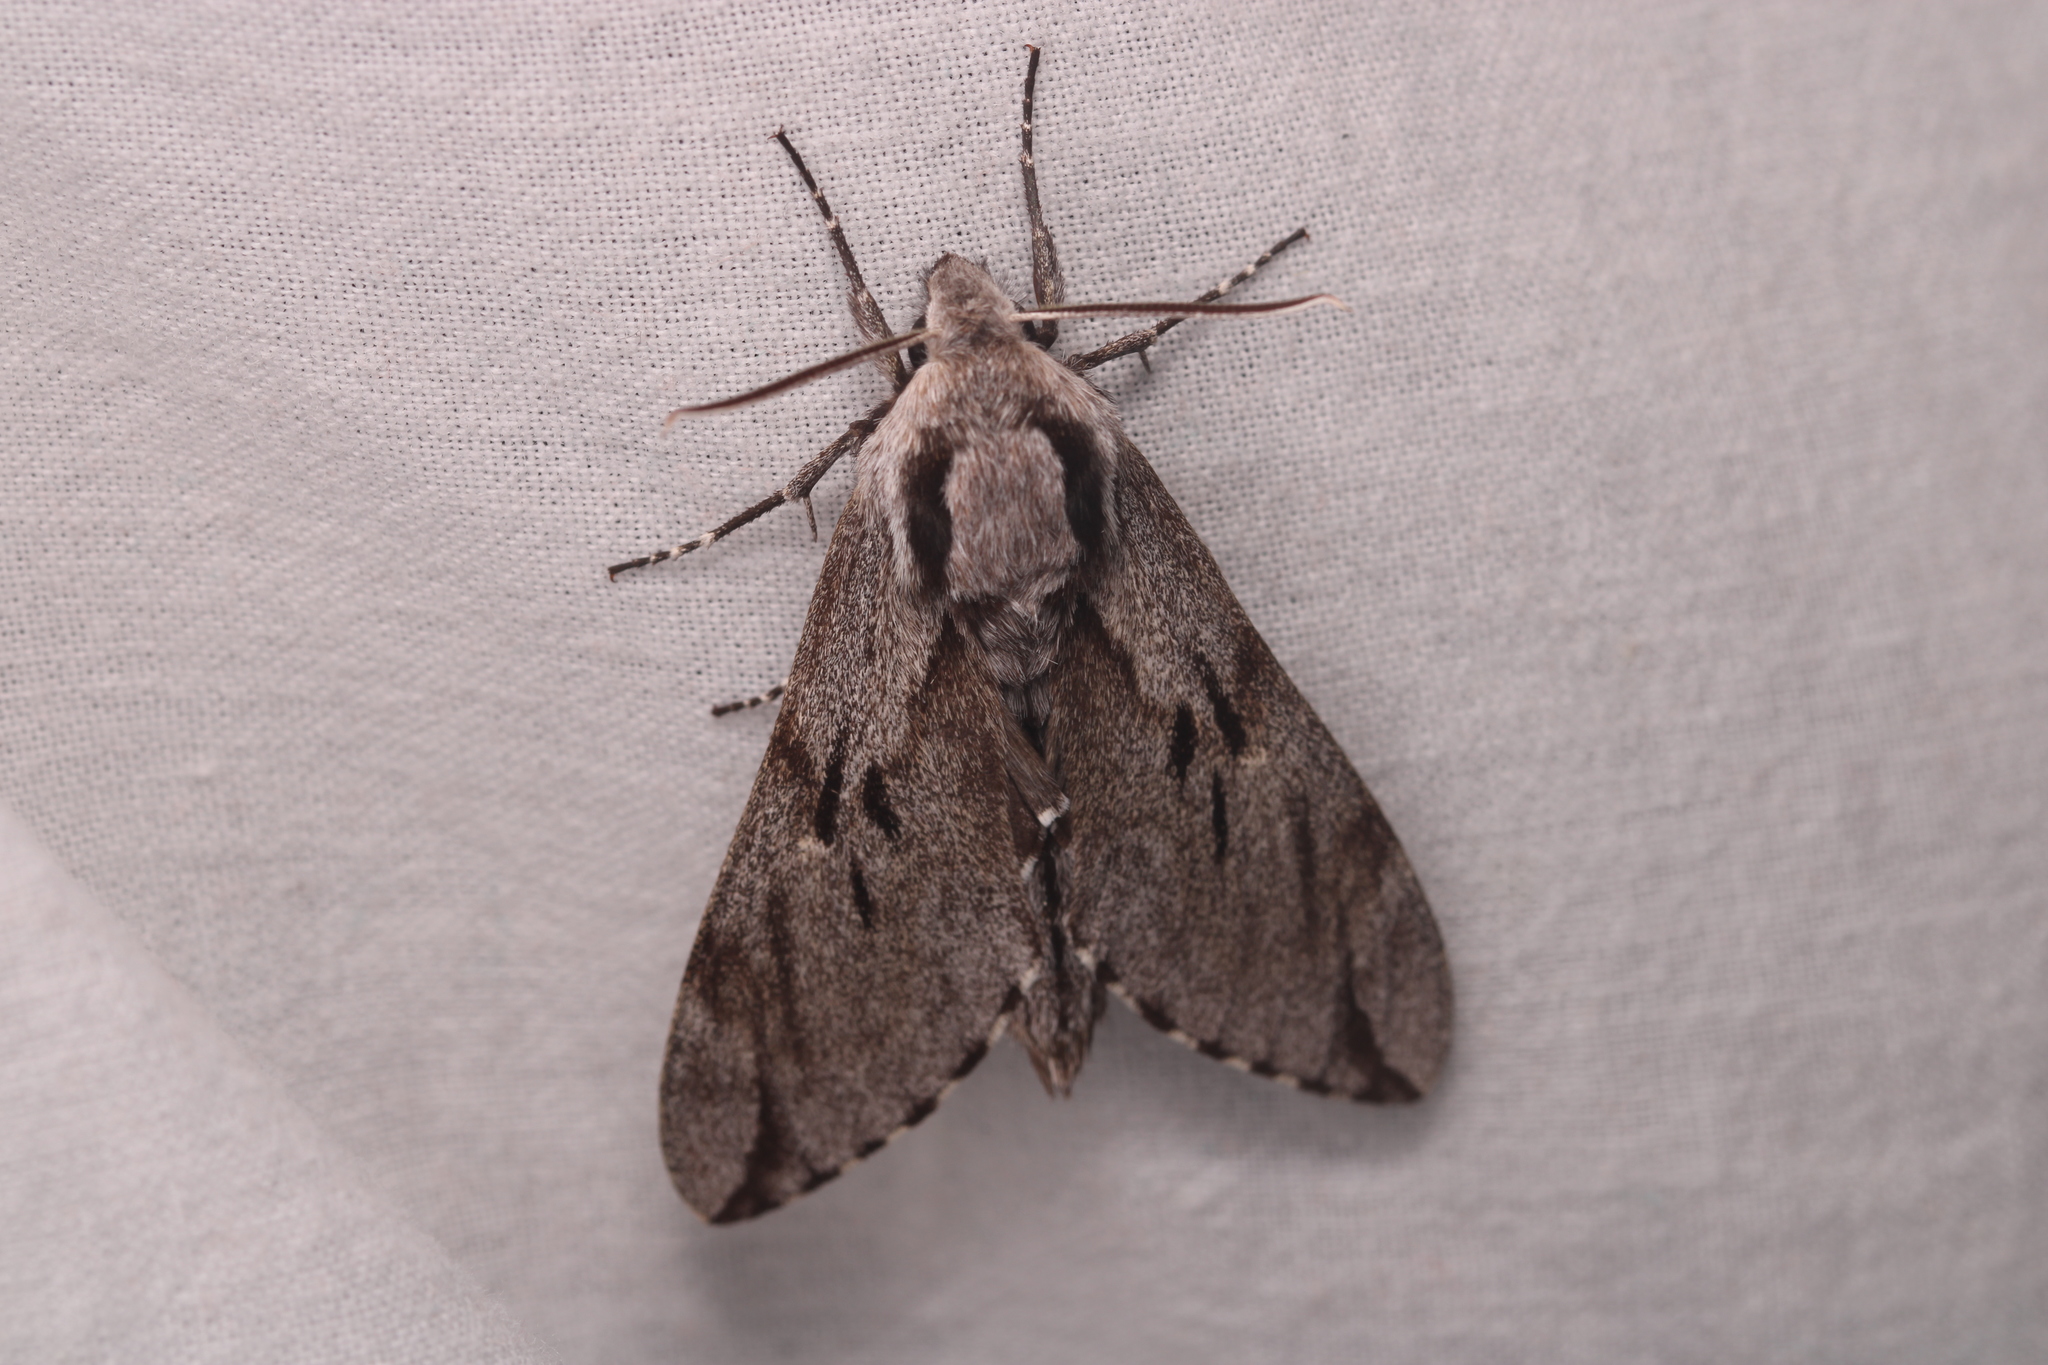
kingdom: Animalia
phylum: Arthropoda
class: Insecta
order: Lepidoptera
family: Sphingidae
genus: Sphinx
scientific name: Sphinx pinastri
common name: Pine hawk-moth
